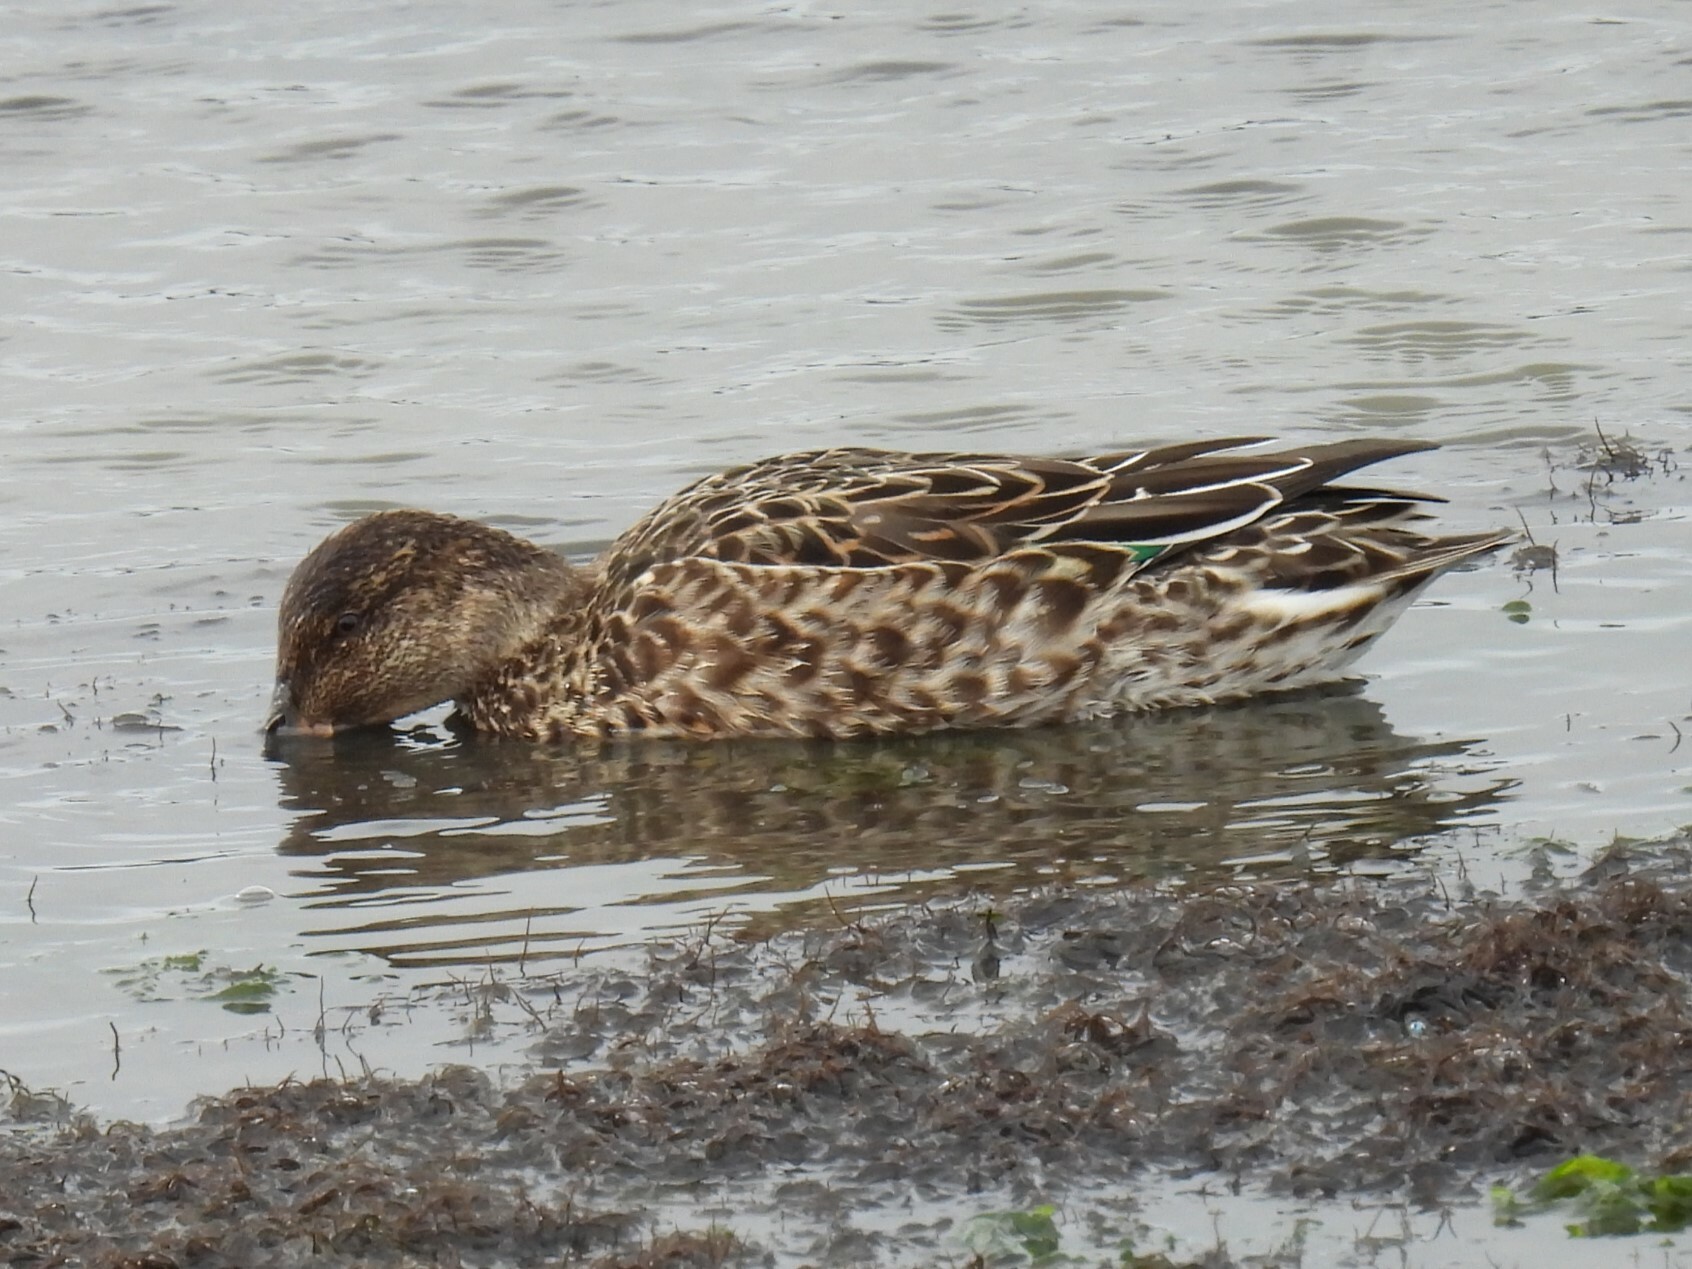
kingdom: Animalia
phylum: Chordata
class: Aves
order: Anseriformes
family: Anatidae
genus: Anas
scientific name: Anas crecca
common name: Eurasian teal
